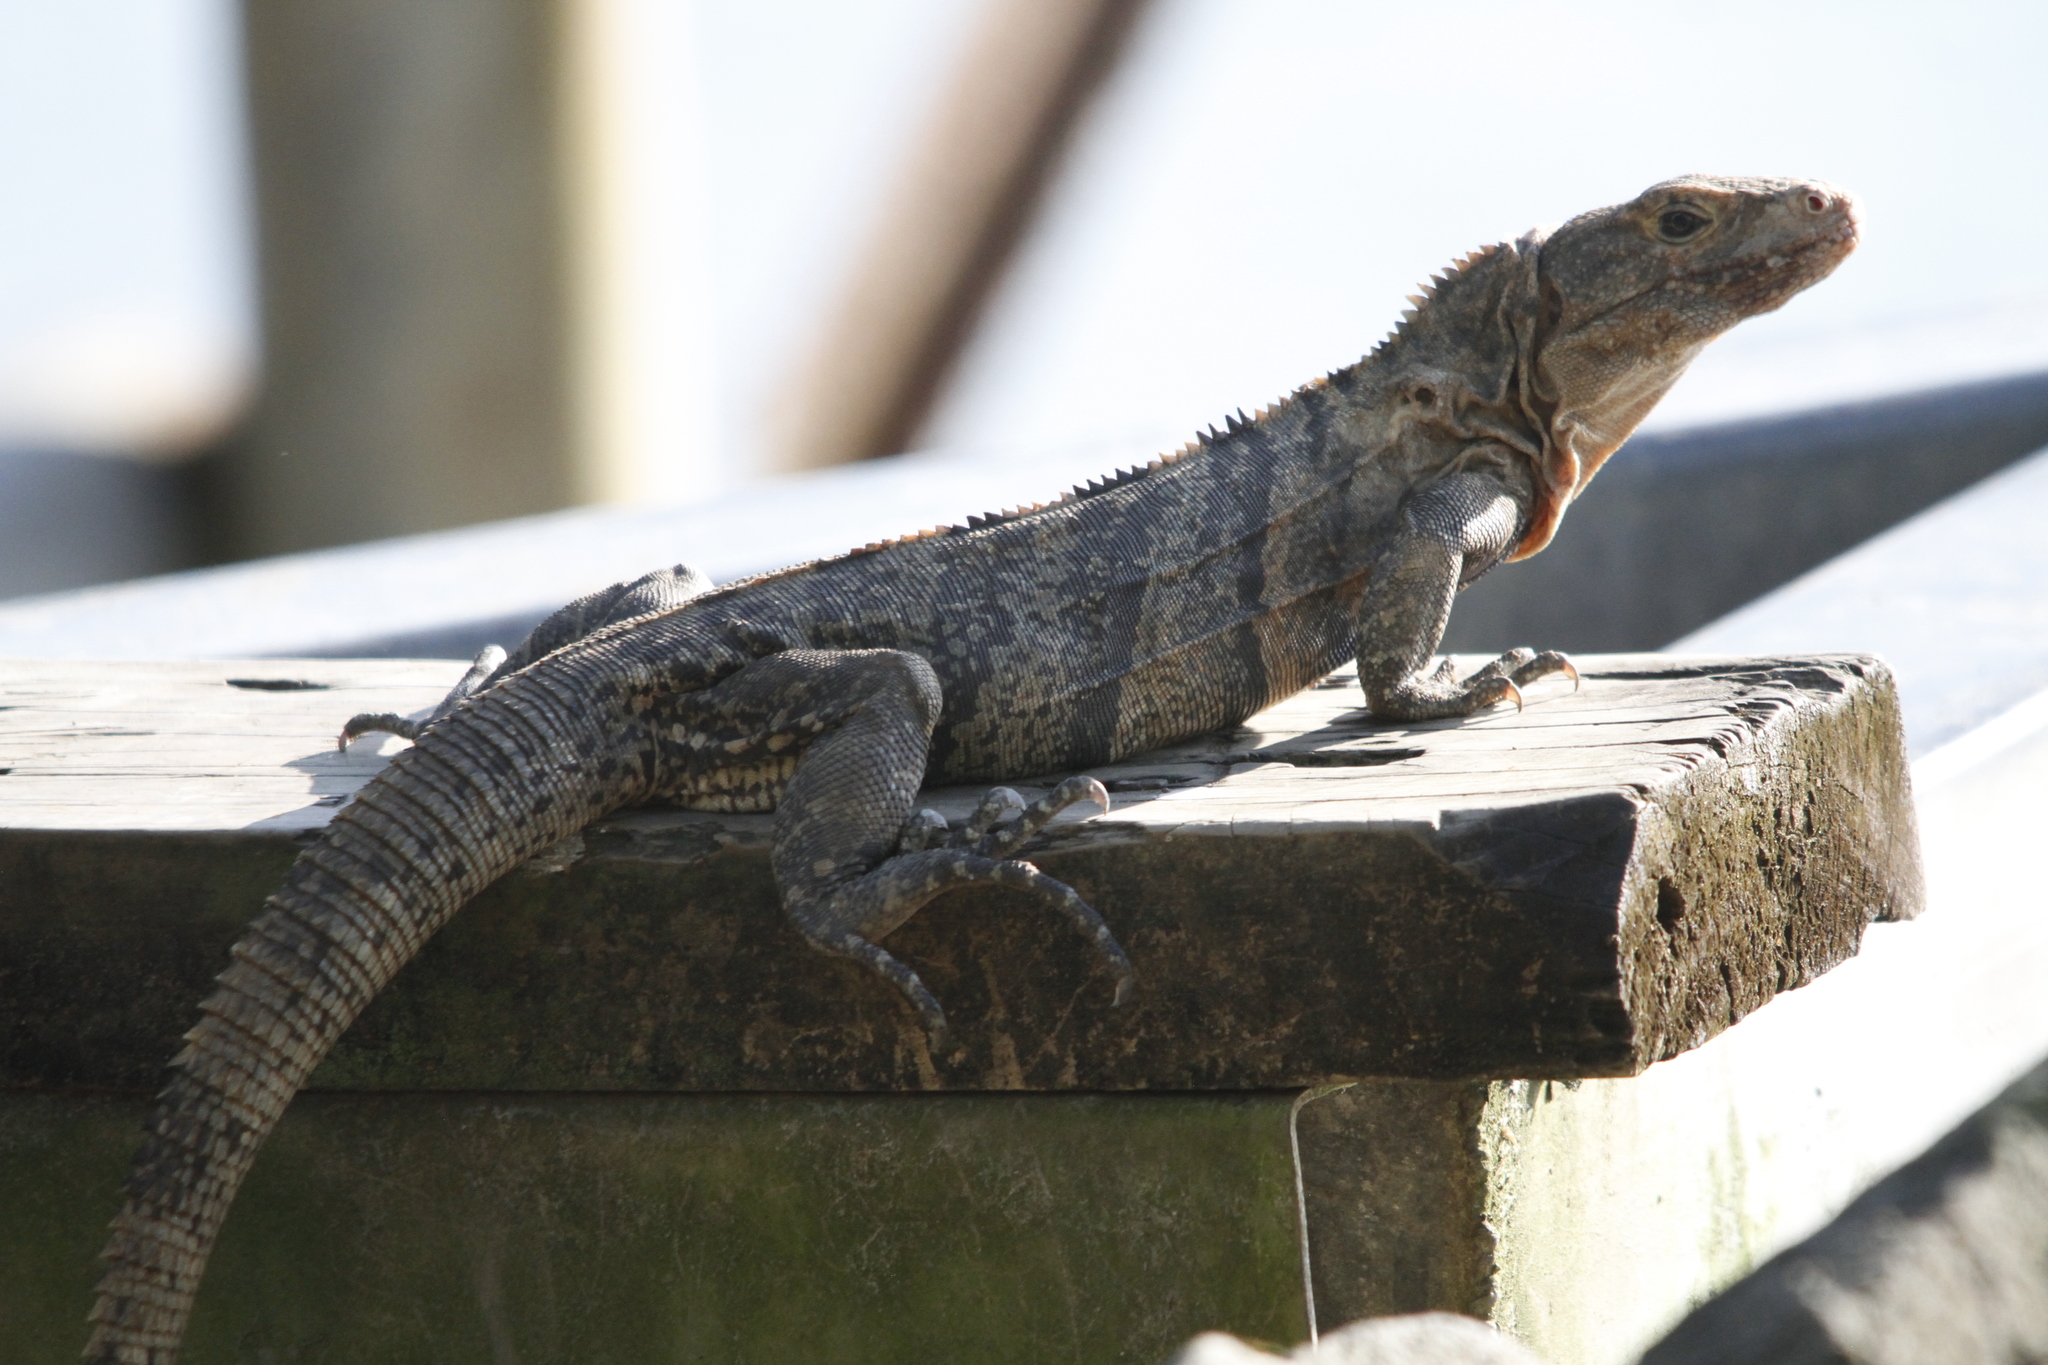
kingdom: Animalia
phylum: Chordata
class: Squamata
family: Iguanidae
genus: Ctenosaura
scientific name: Ctenosaura similis
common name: Black spiny-tailed iguana
